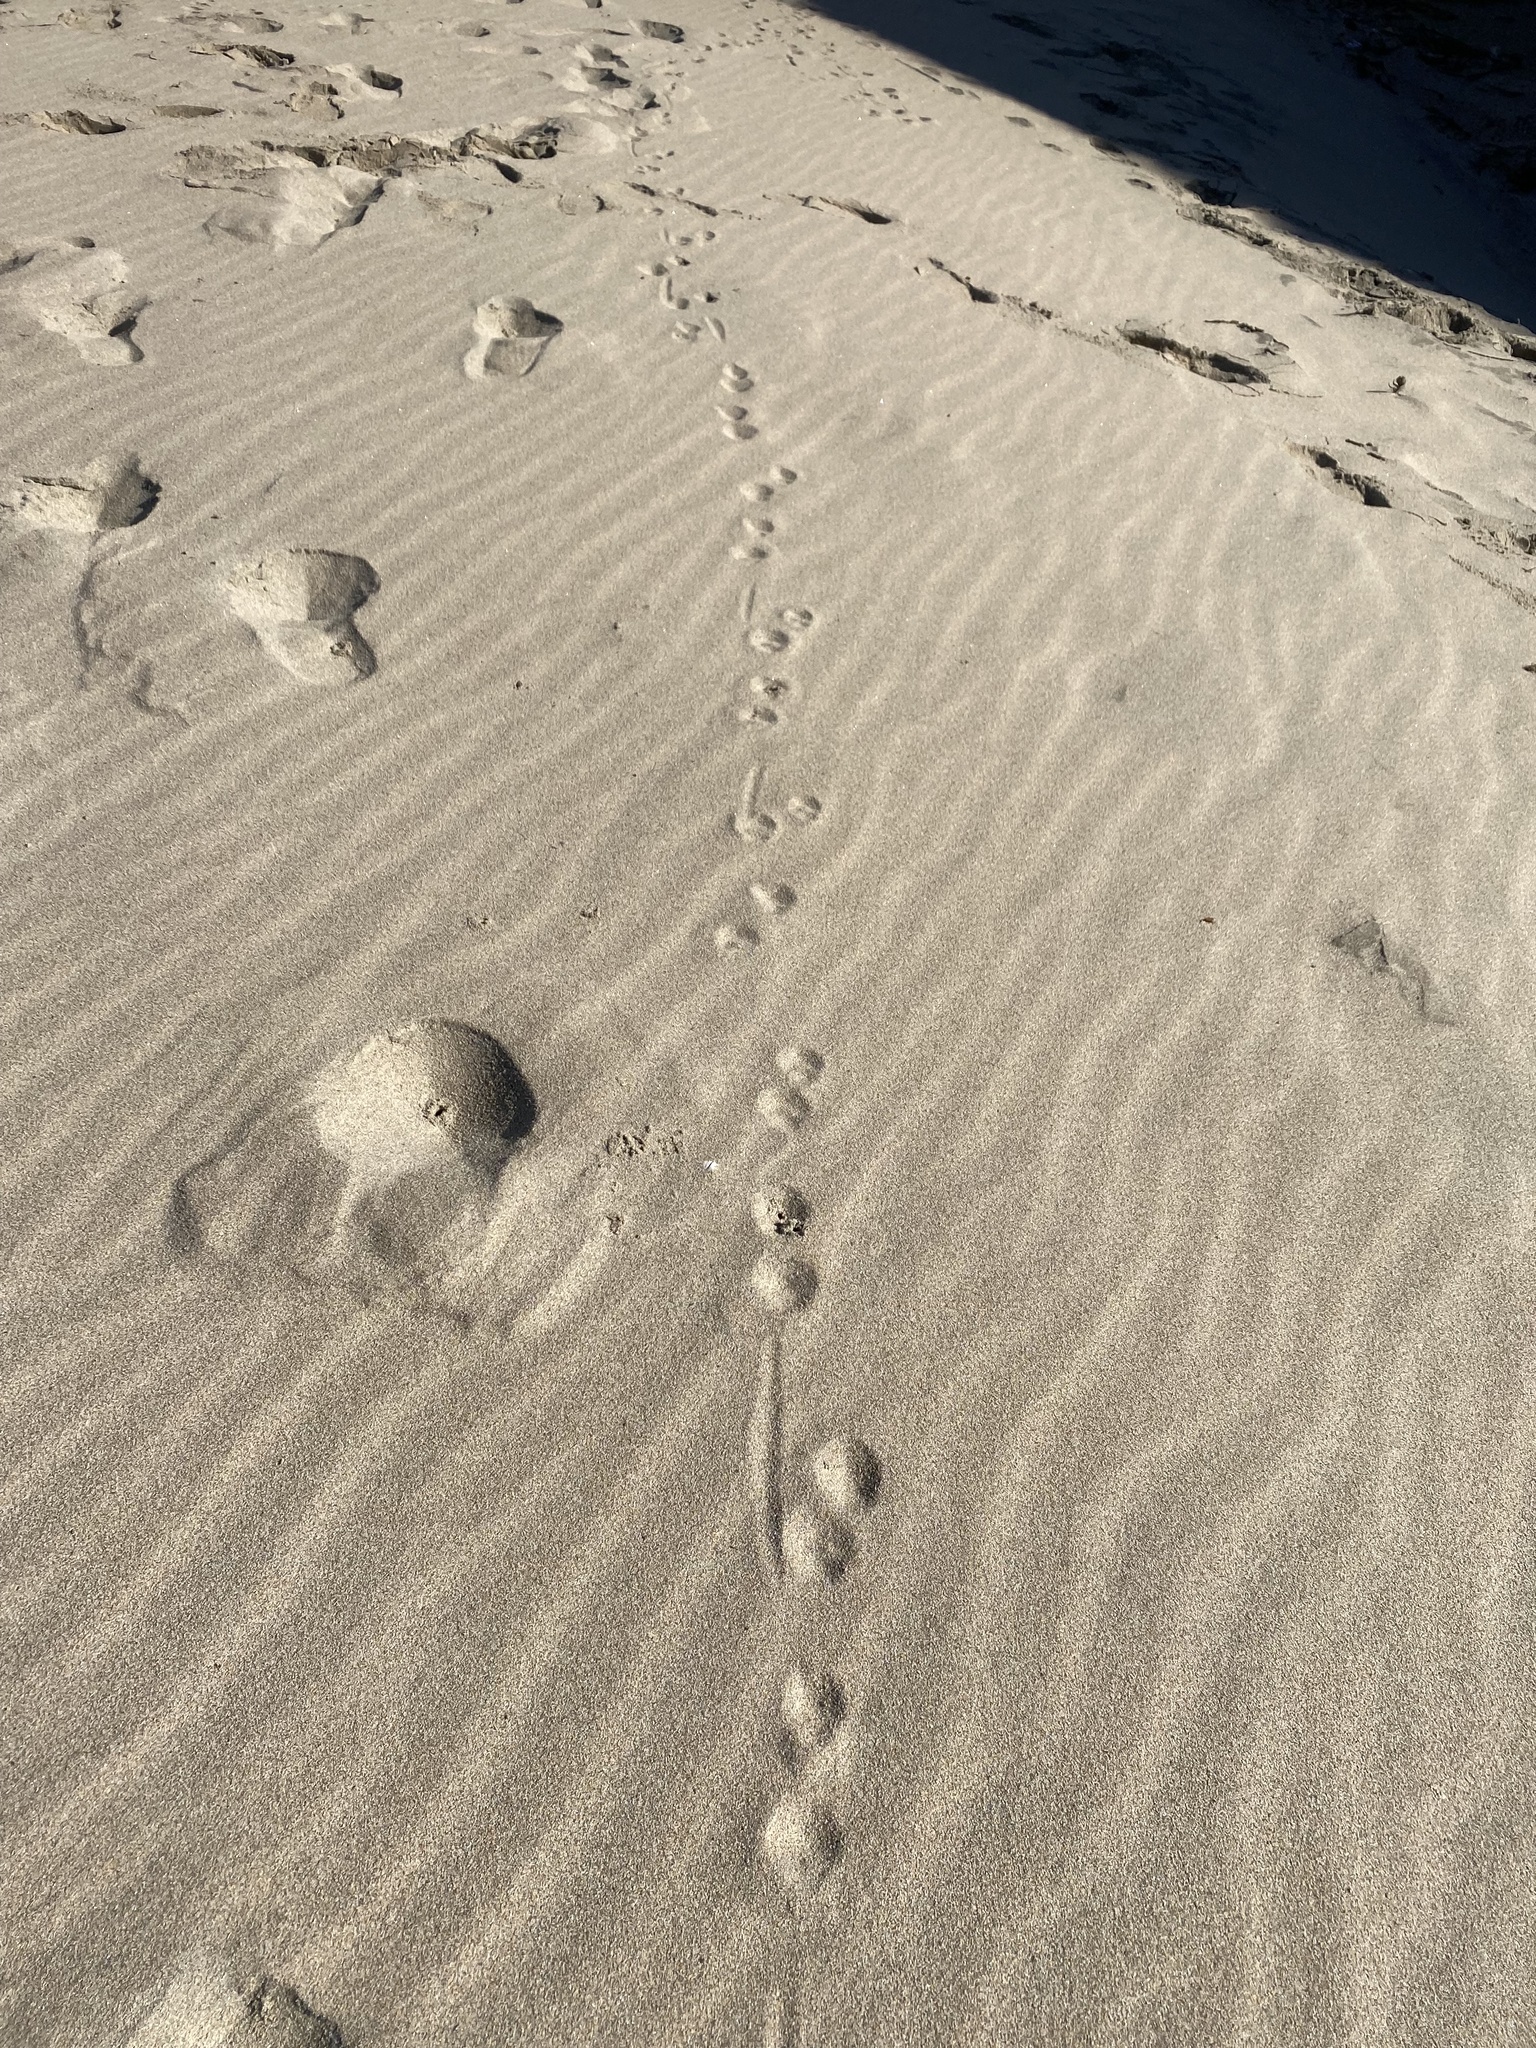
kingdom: Animalia
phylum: Chordata
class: Mammalia
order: Carnivora
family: Canidae
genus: Urocyon
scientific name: Urocyon cinereoargenteus
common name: Gray fox
